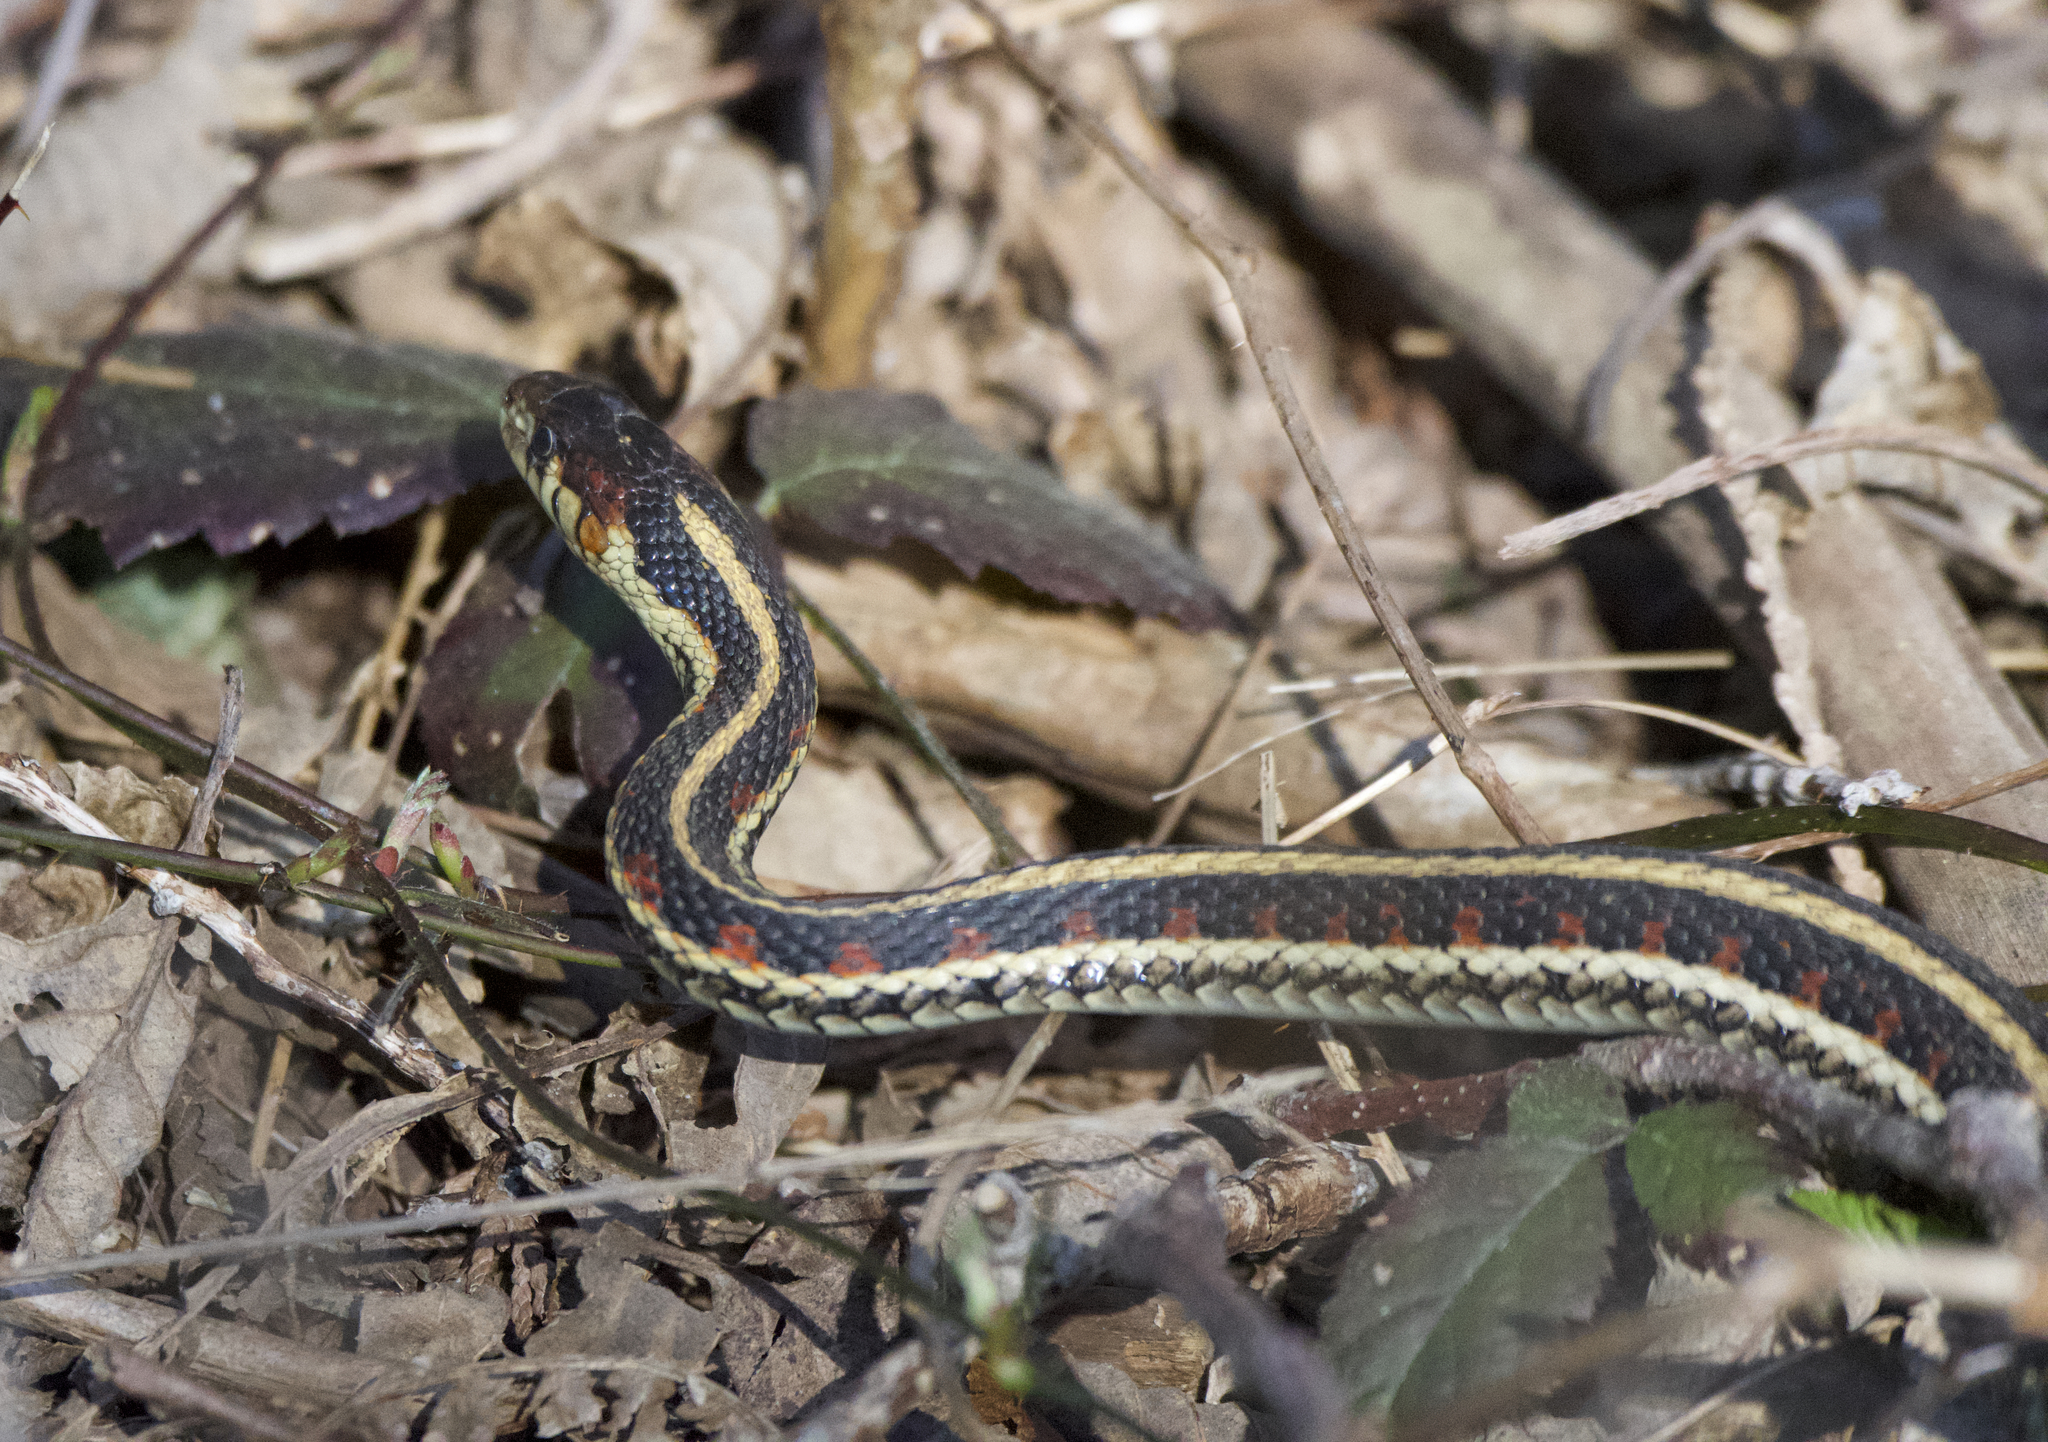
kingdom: Animalia
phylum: Chordata
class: Squamata
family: Colubridae
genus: Thamnophis
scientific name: Thamnophis sirtalis
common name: Common garter snake
